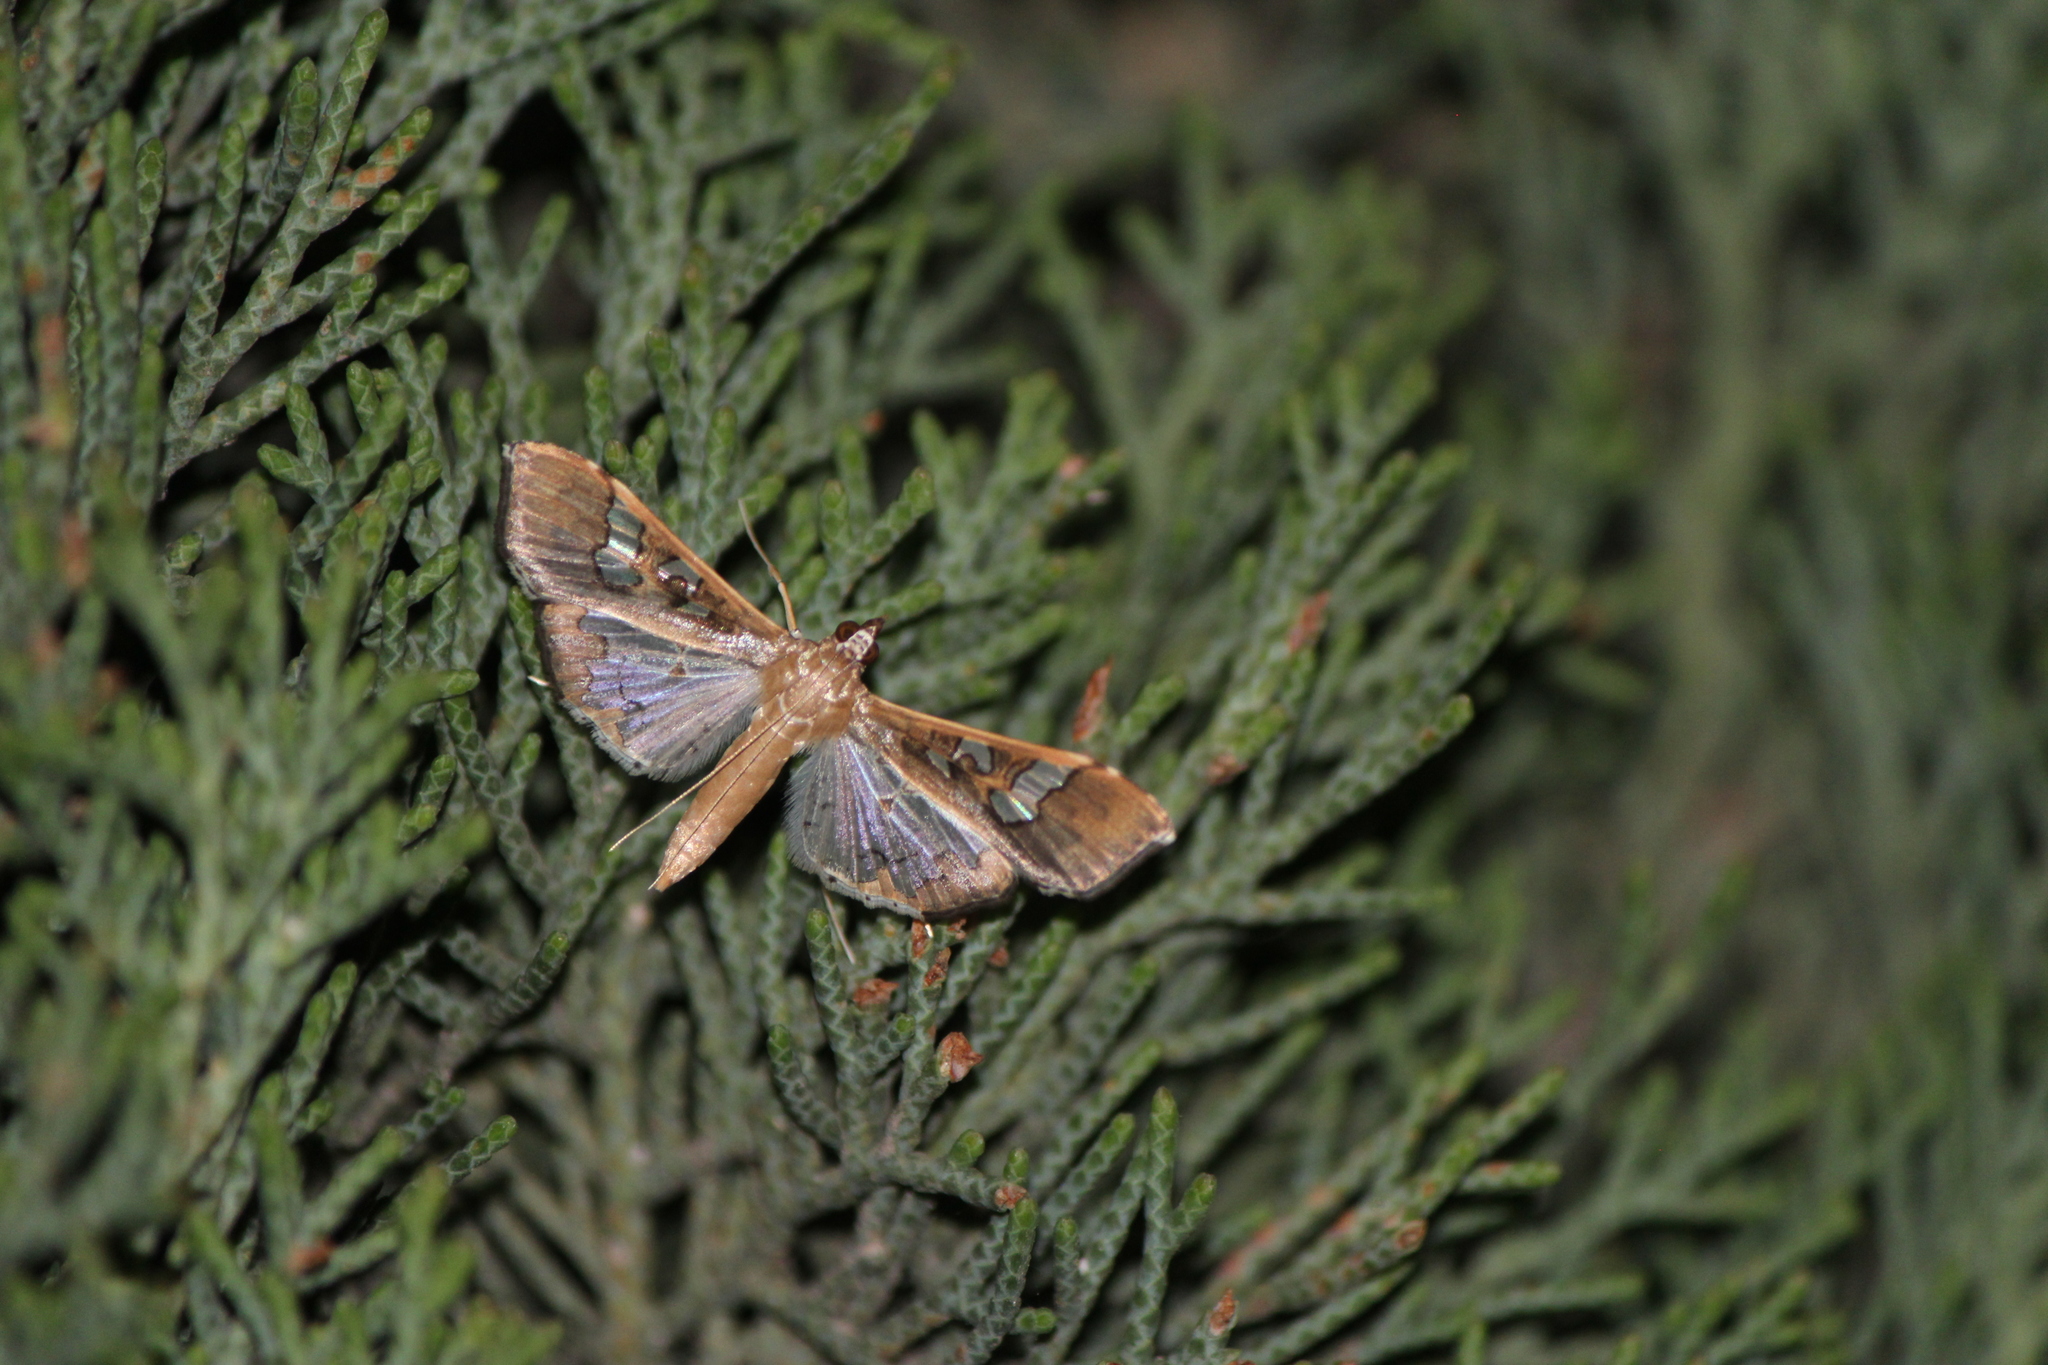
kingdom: Animalia
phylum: Arthropoda
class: Insecta
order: Lepidoptera
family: Crambidae
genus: Maruca
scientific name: Maruca vitrata
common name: Maruca pod borer
